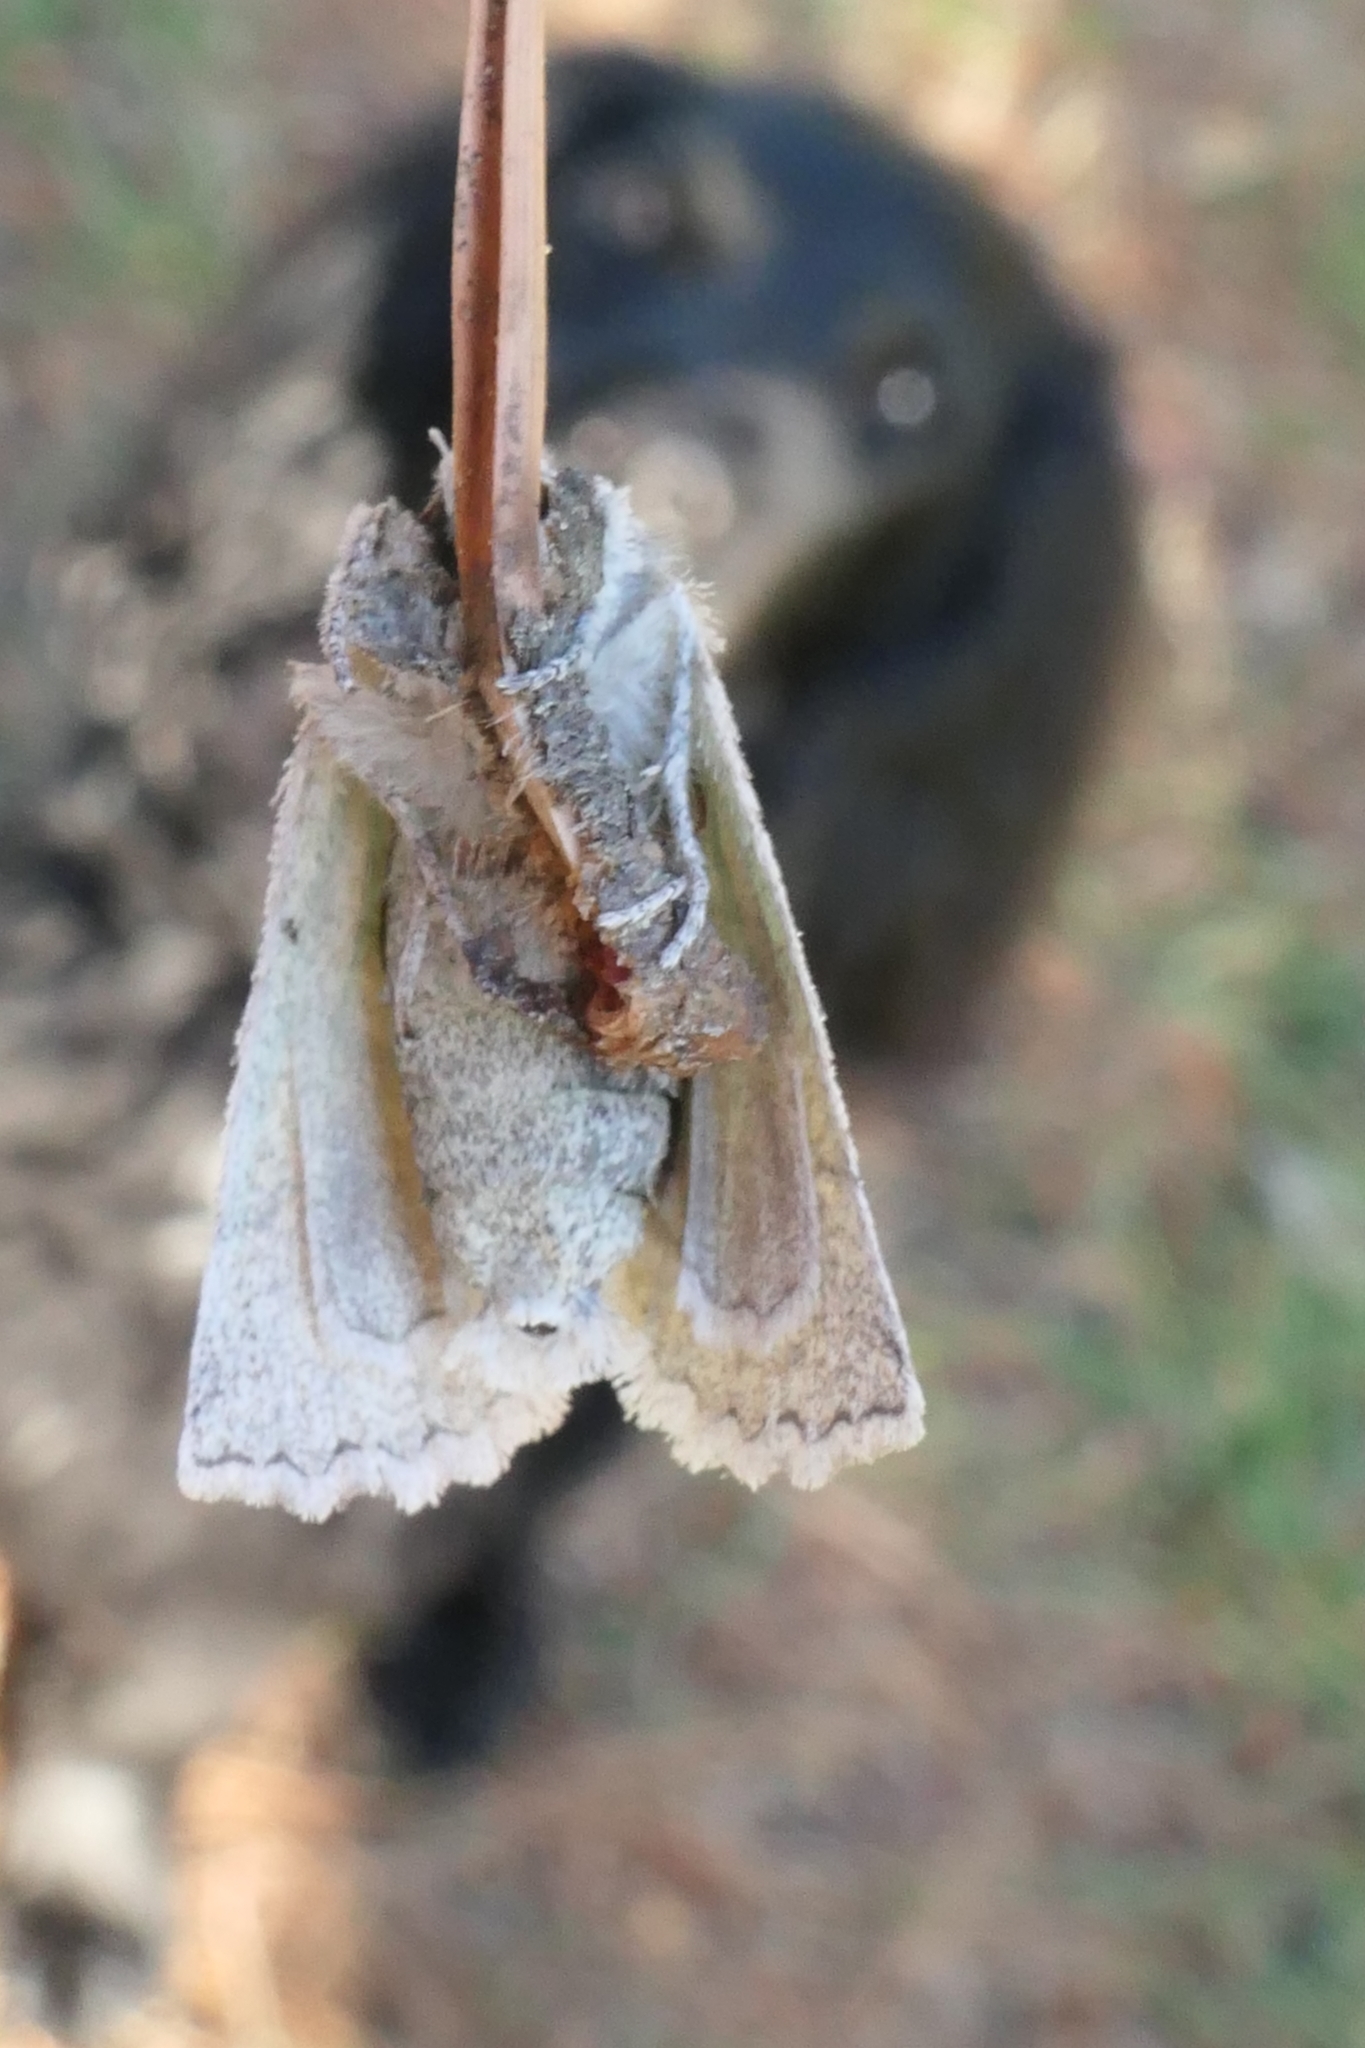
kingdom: Animalia
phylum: Arthropoda
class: Insecta
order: Lepidoptera
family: Geometridae
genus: Declana
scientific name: Declana floccosa
